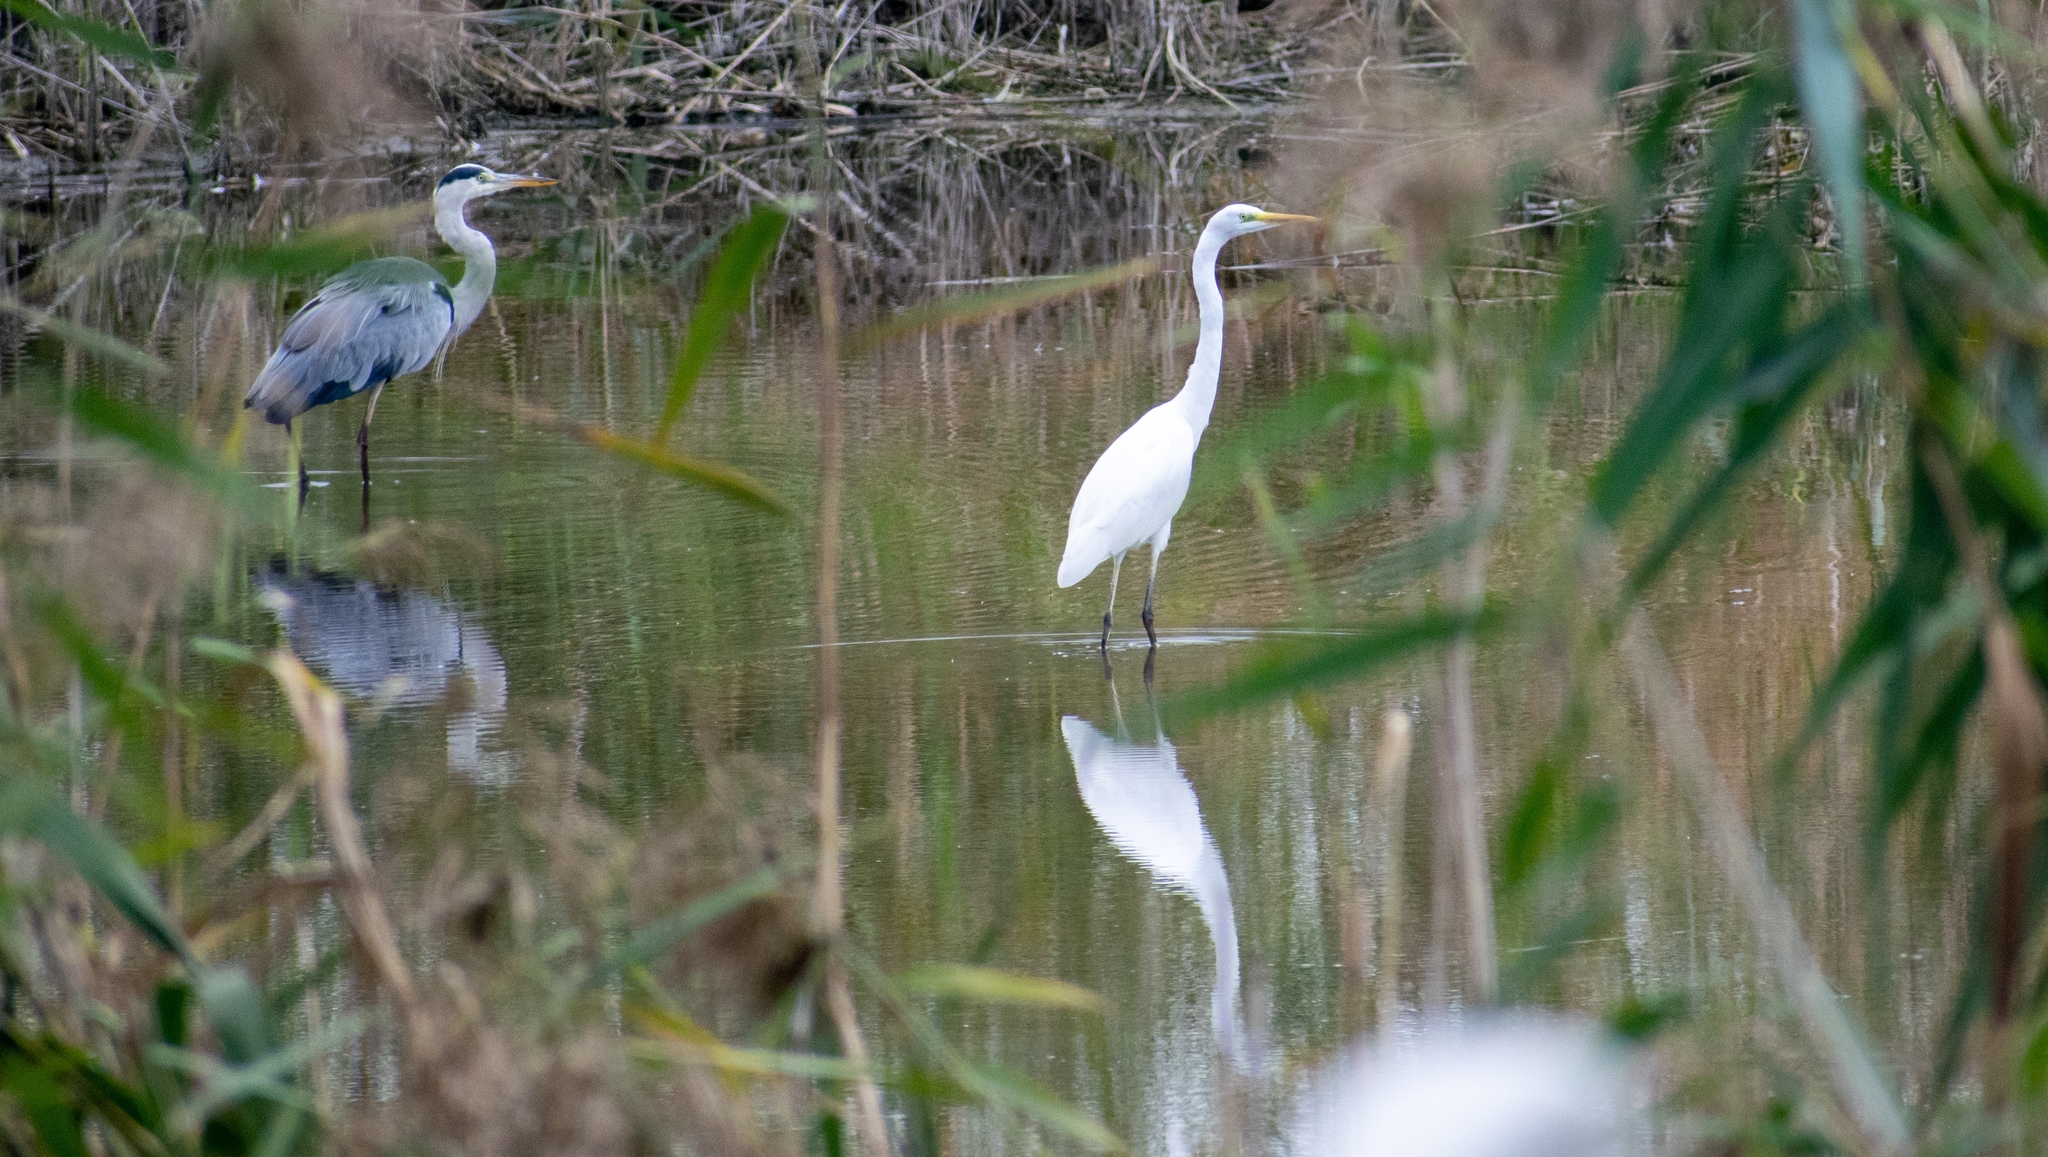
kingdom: Animalia
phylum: Chordata
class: Aves
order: Pelecaniformes
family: Ardeidae
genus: Ardea
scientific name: Ardea alba
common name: Great egret
